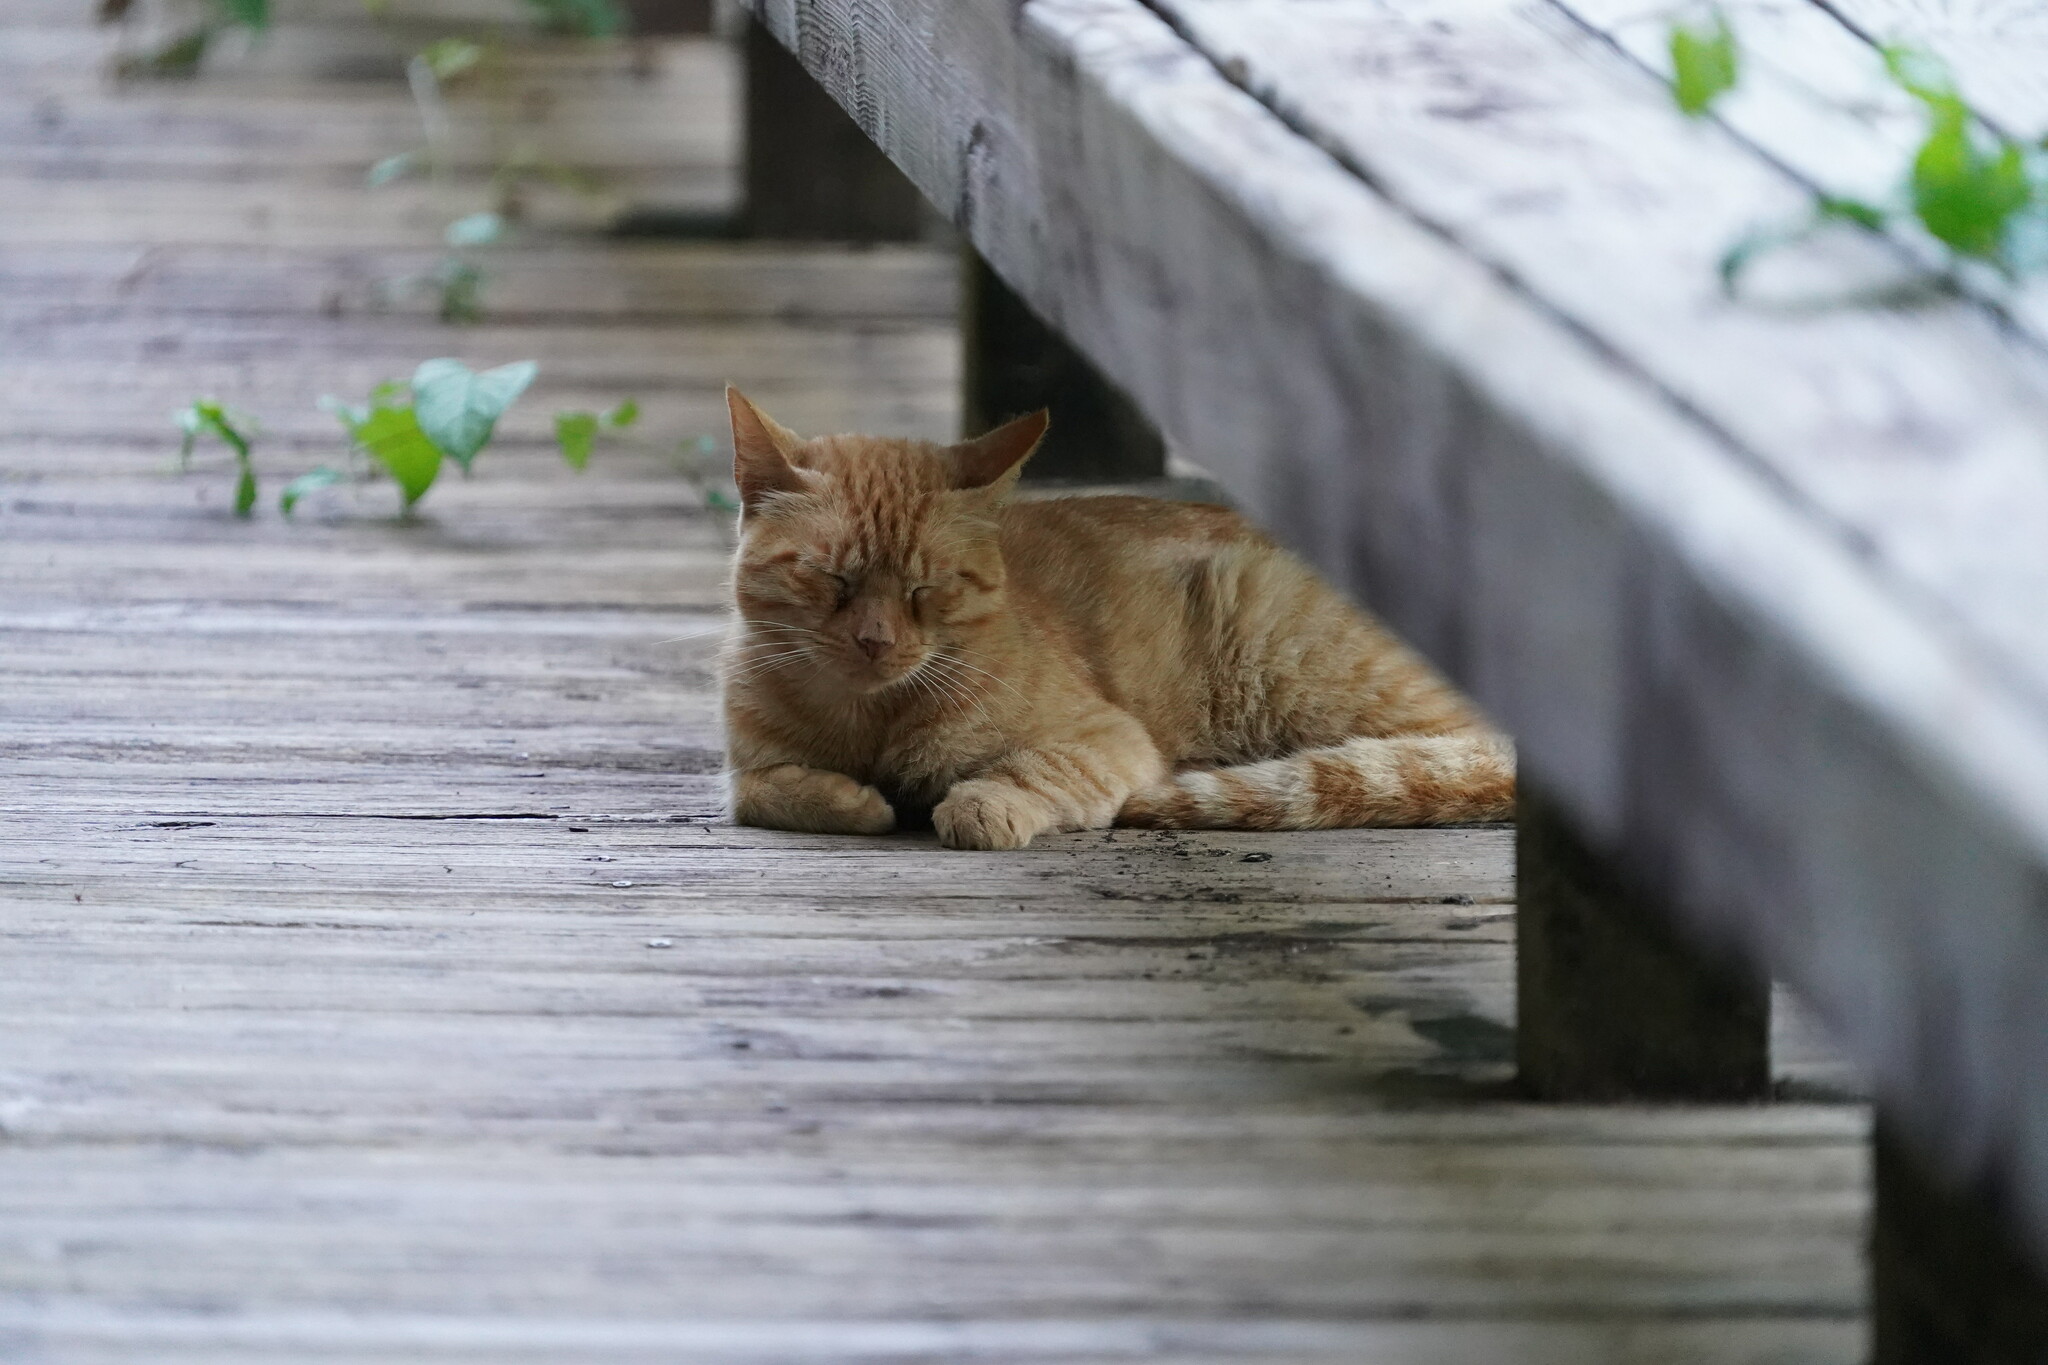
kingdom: Animalia
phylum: Chordata
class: Mammalia
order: Carnivora
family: Felidae
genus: Felis
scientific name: Felis catus
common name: Domestic cat
